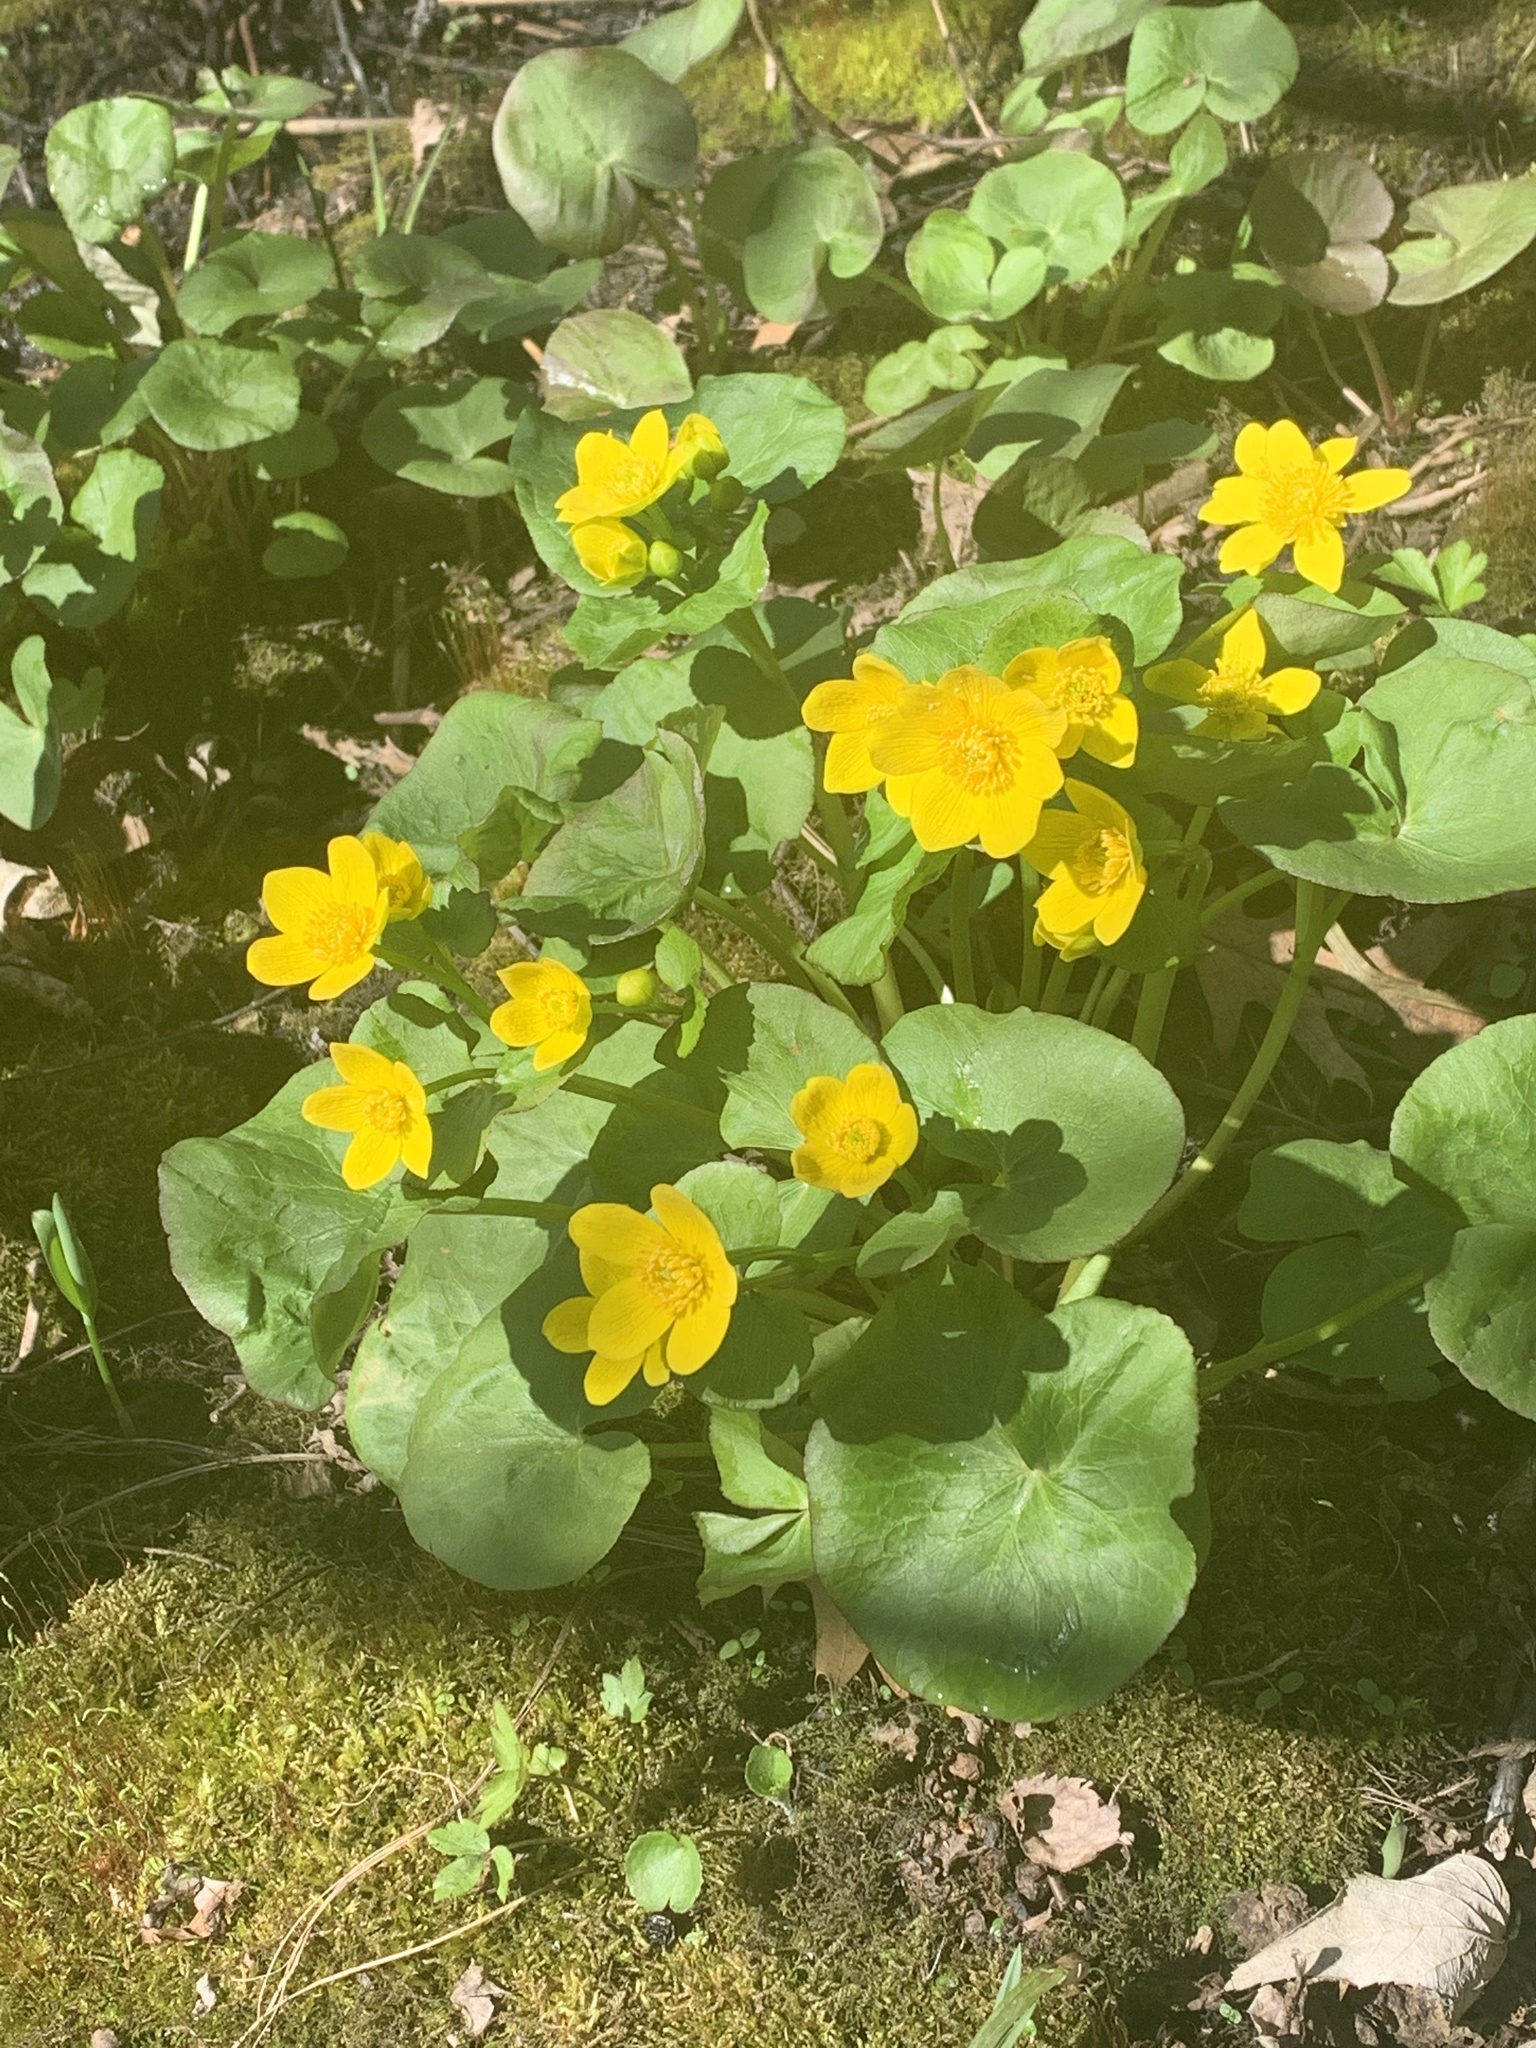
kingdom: Plantae
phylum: Tracheophyta
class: Magnoliopsida
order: Ranunculales
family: Ranunculaceae
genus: Caltha
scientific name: Caltha palustris
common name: Marsh marigold
